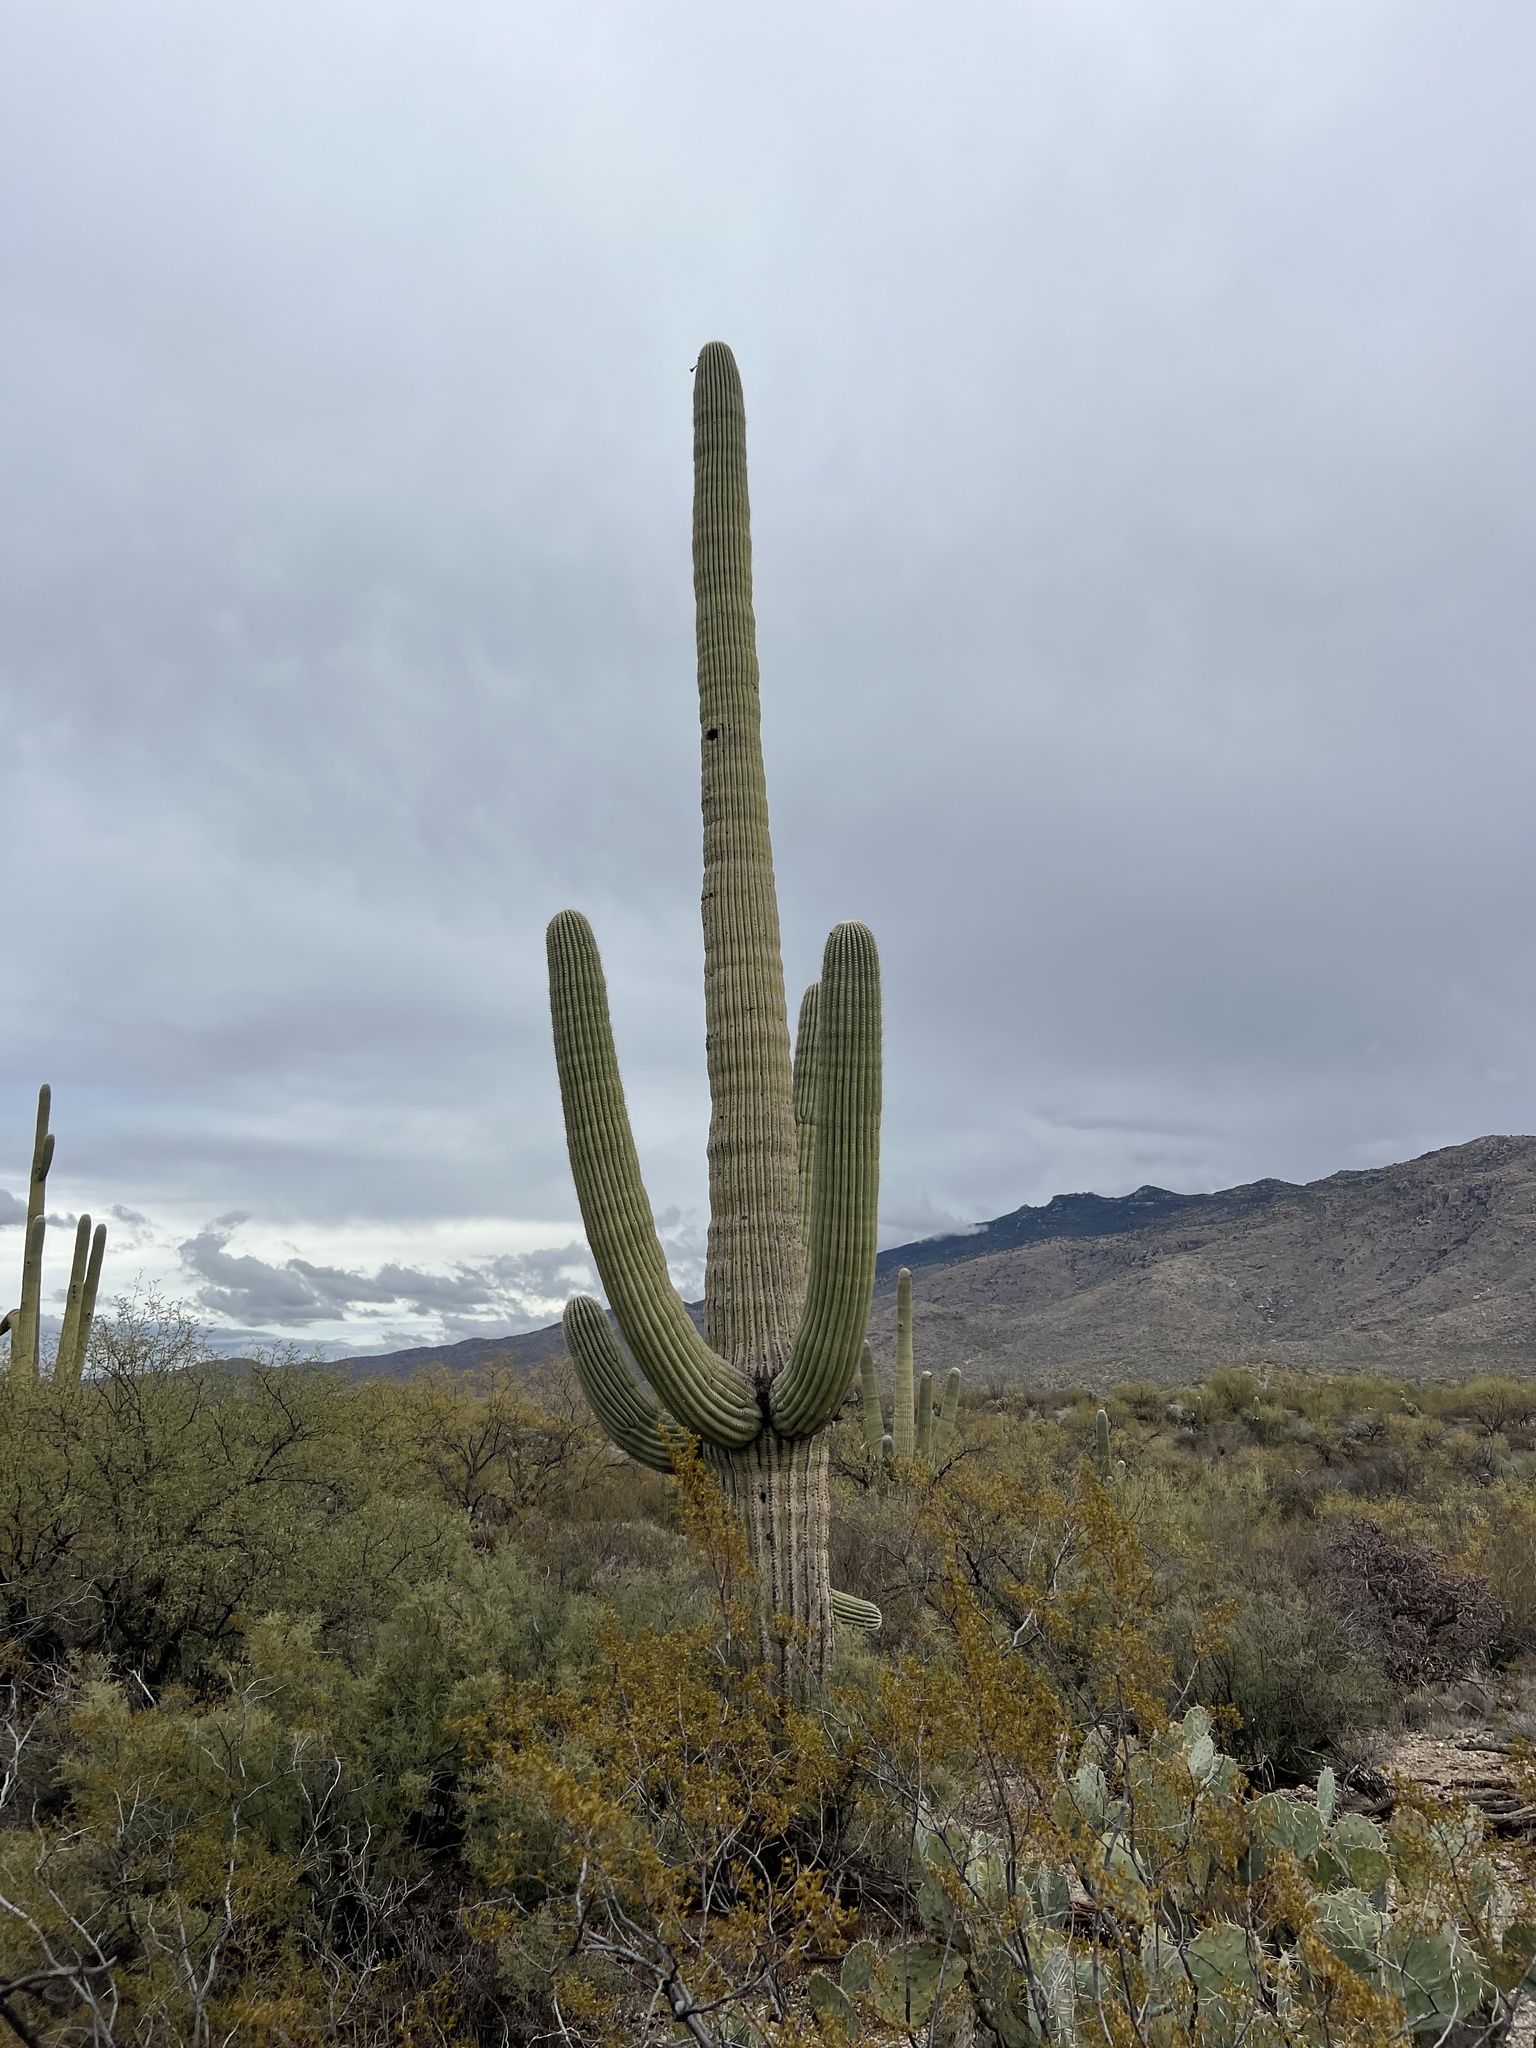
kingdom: Plantae
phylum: Tracheophyta
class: Magnoliopsida
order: Caryophyllales
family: Cactaceae
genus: Carnegiea
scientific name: Carnegiea gigantea
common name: Saguaro
